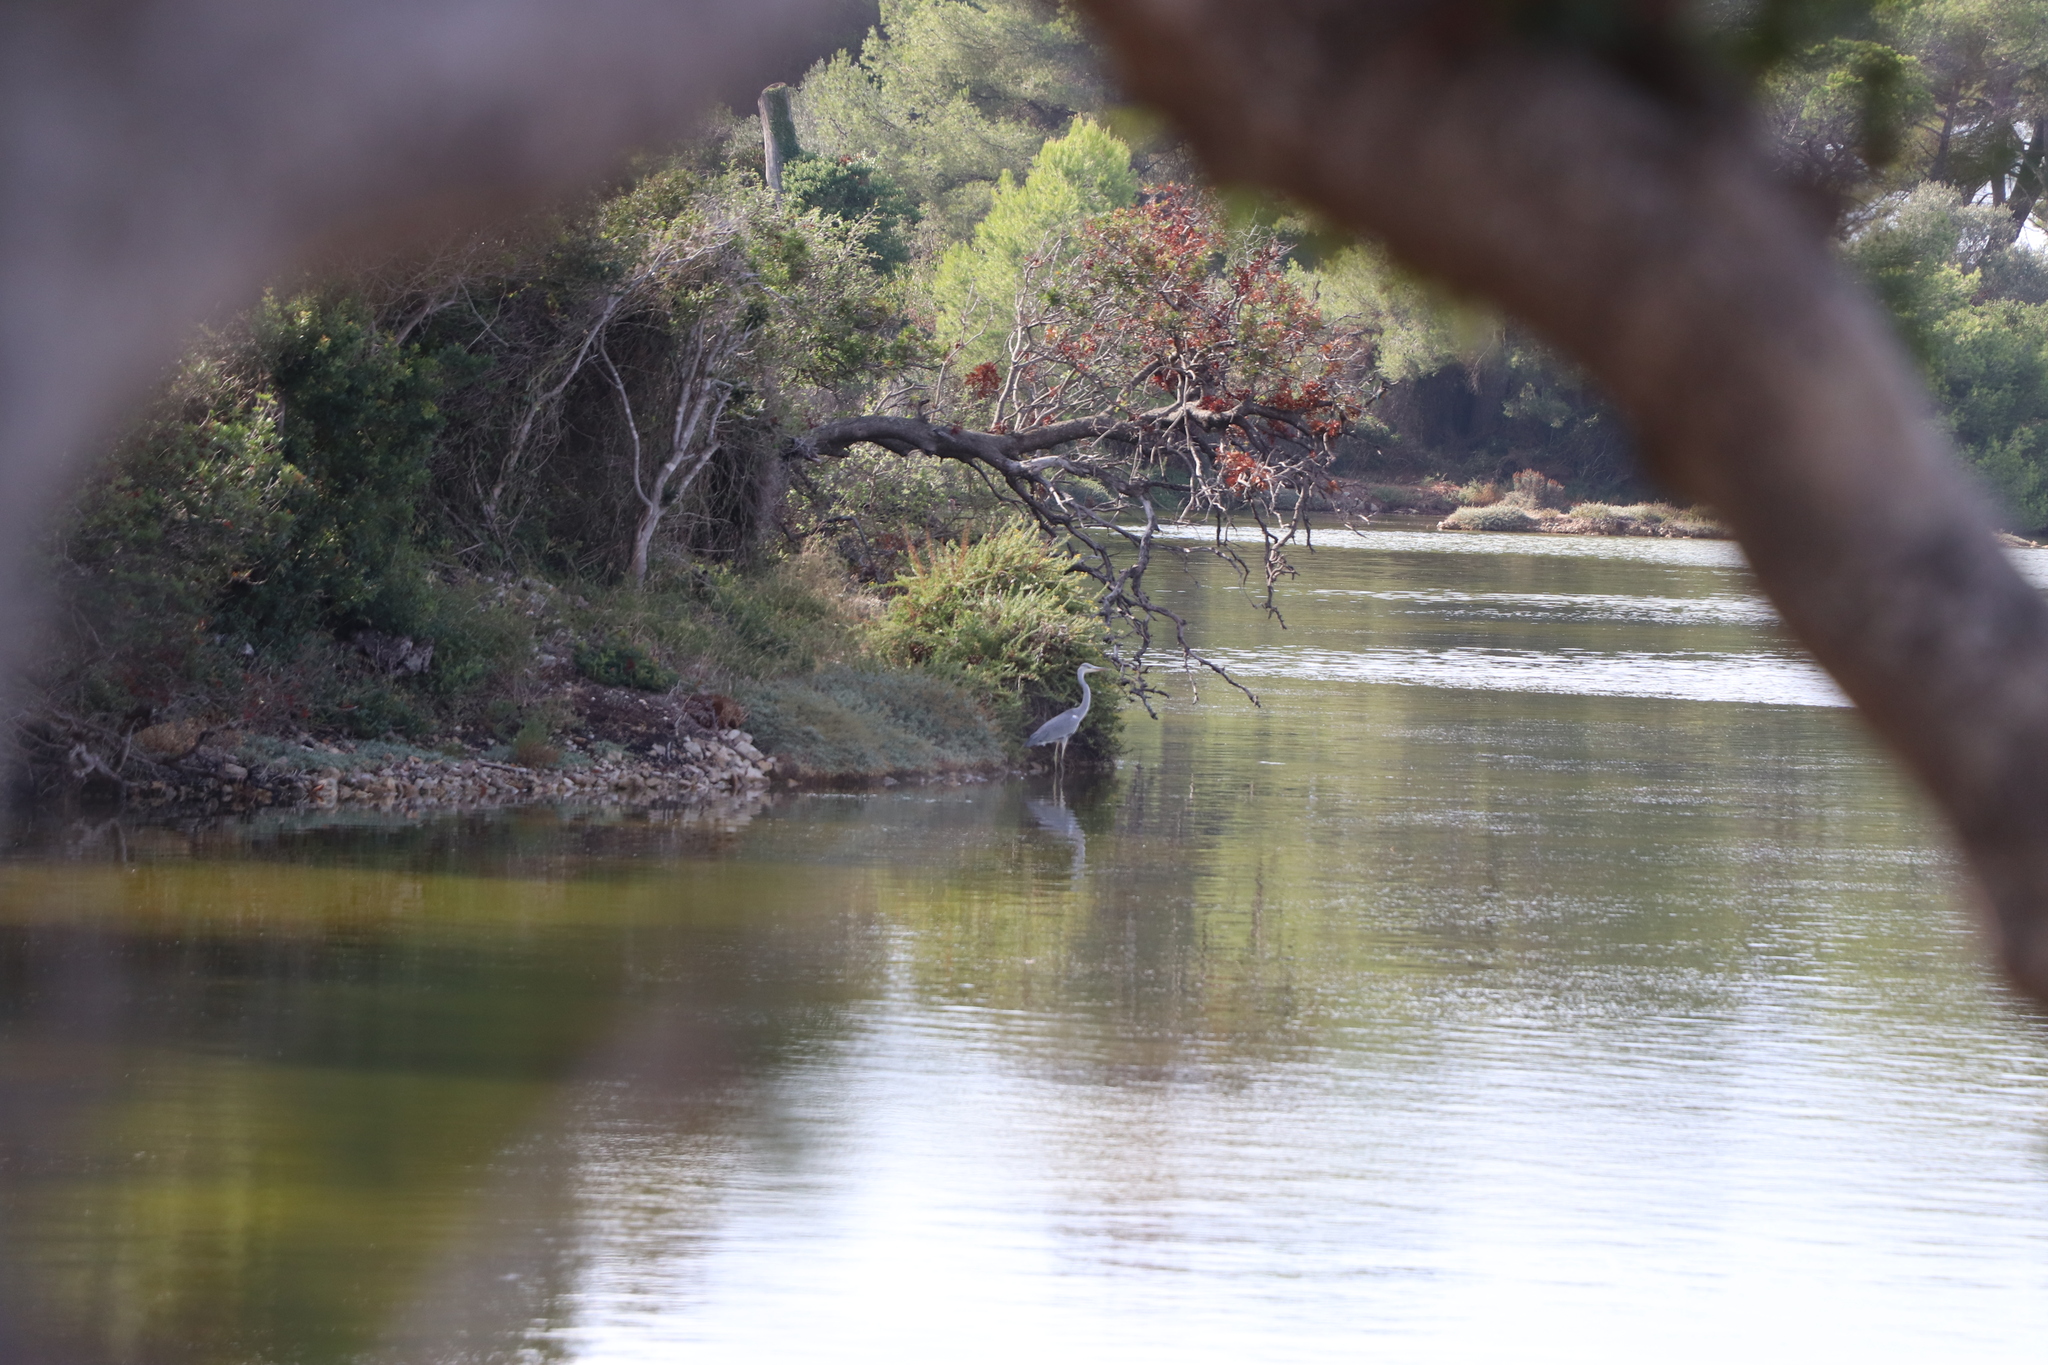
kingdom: Animalia
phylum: Chordata
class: Aves
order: Pelecaniformes
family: Ardeidae
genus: Ardea
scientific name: Ardea cinerea
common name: Grey heron
